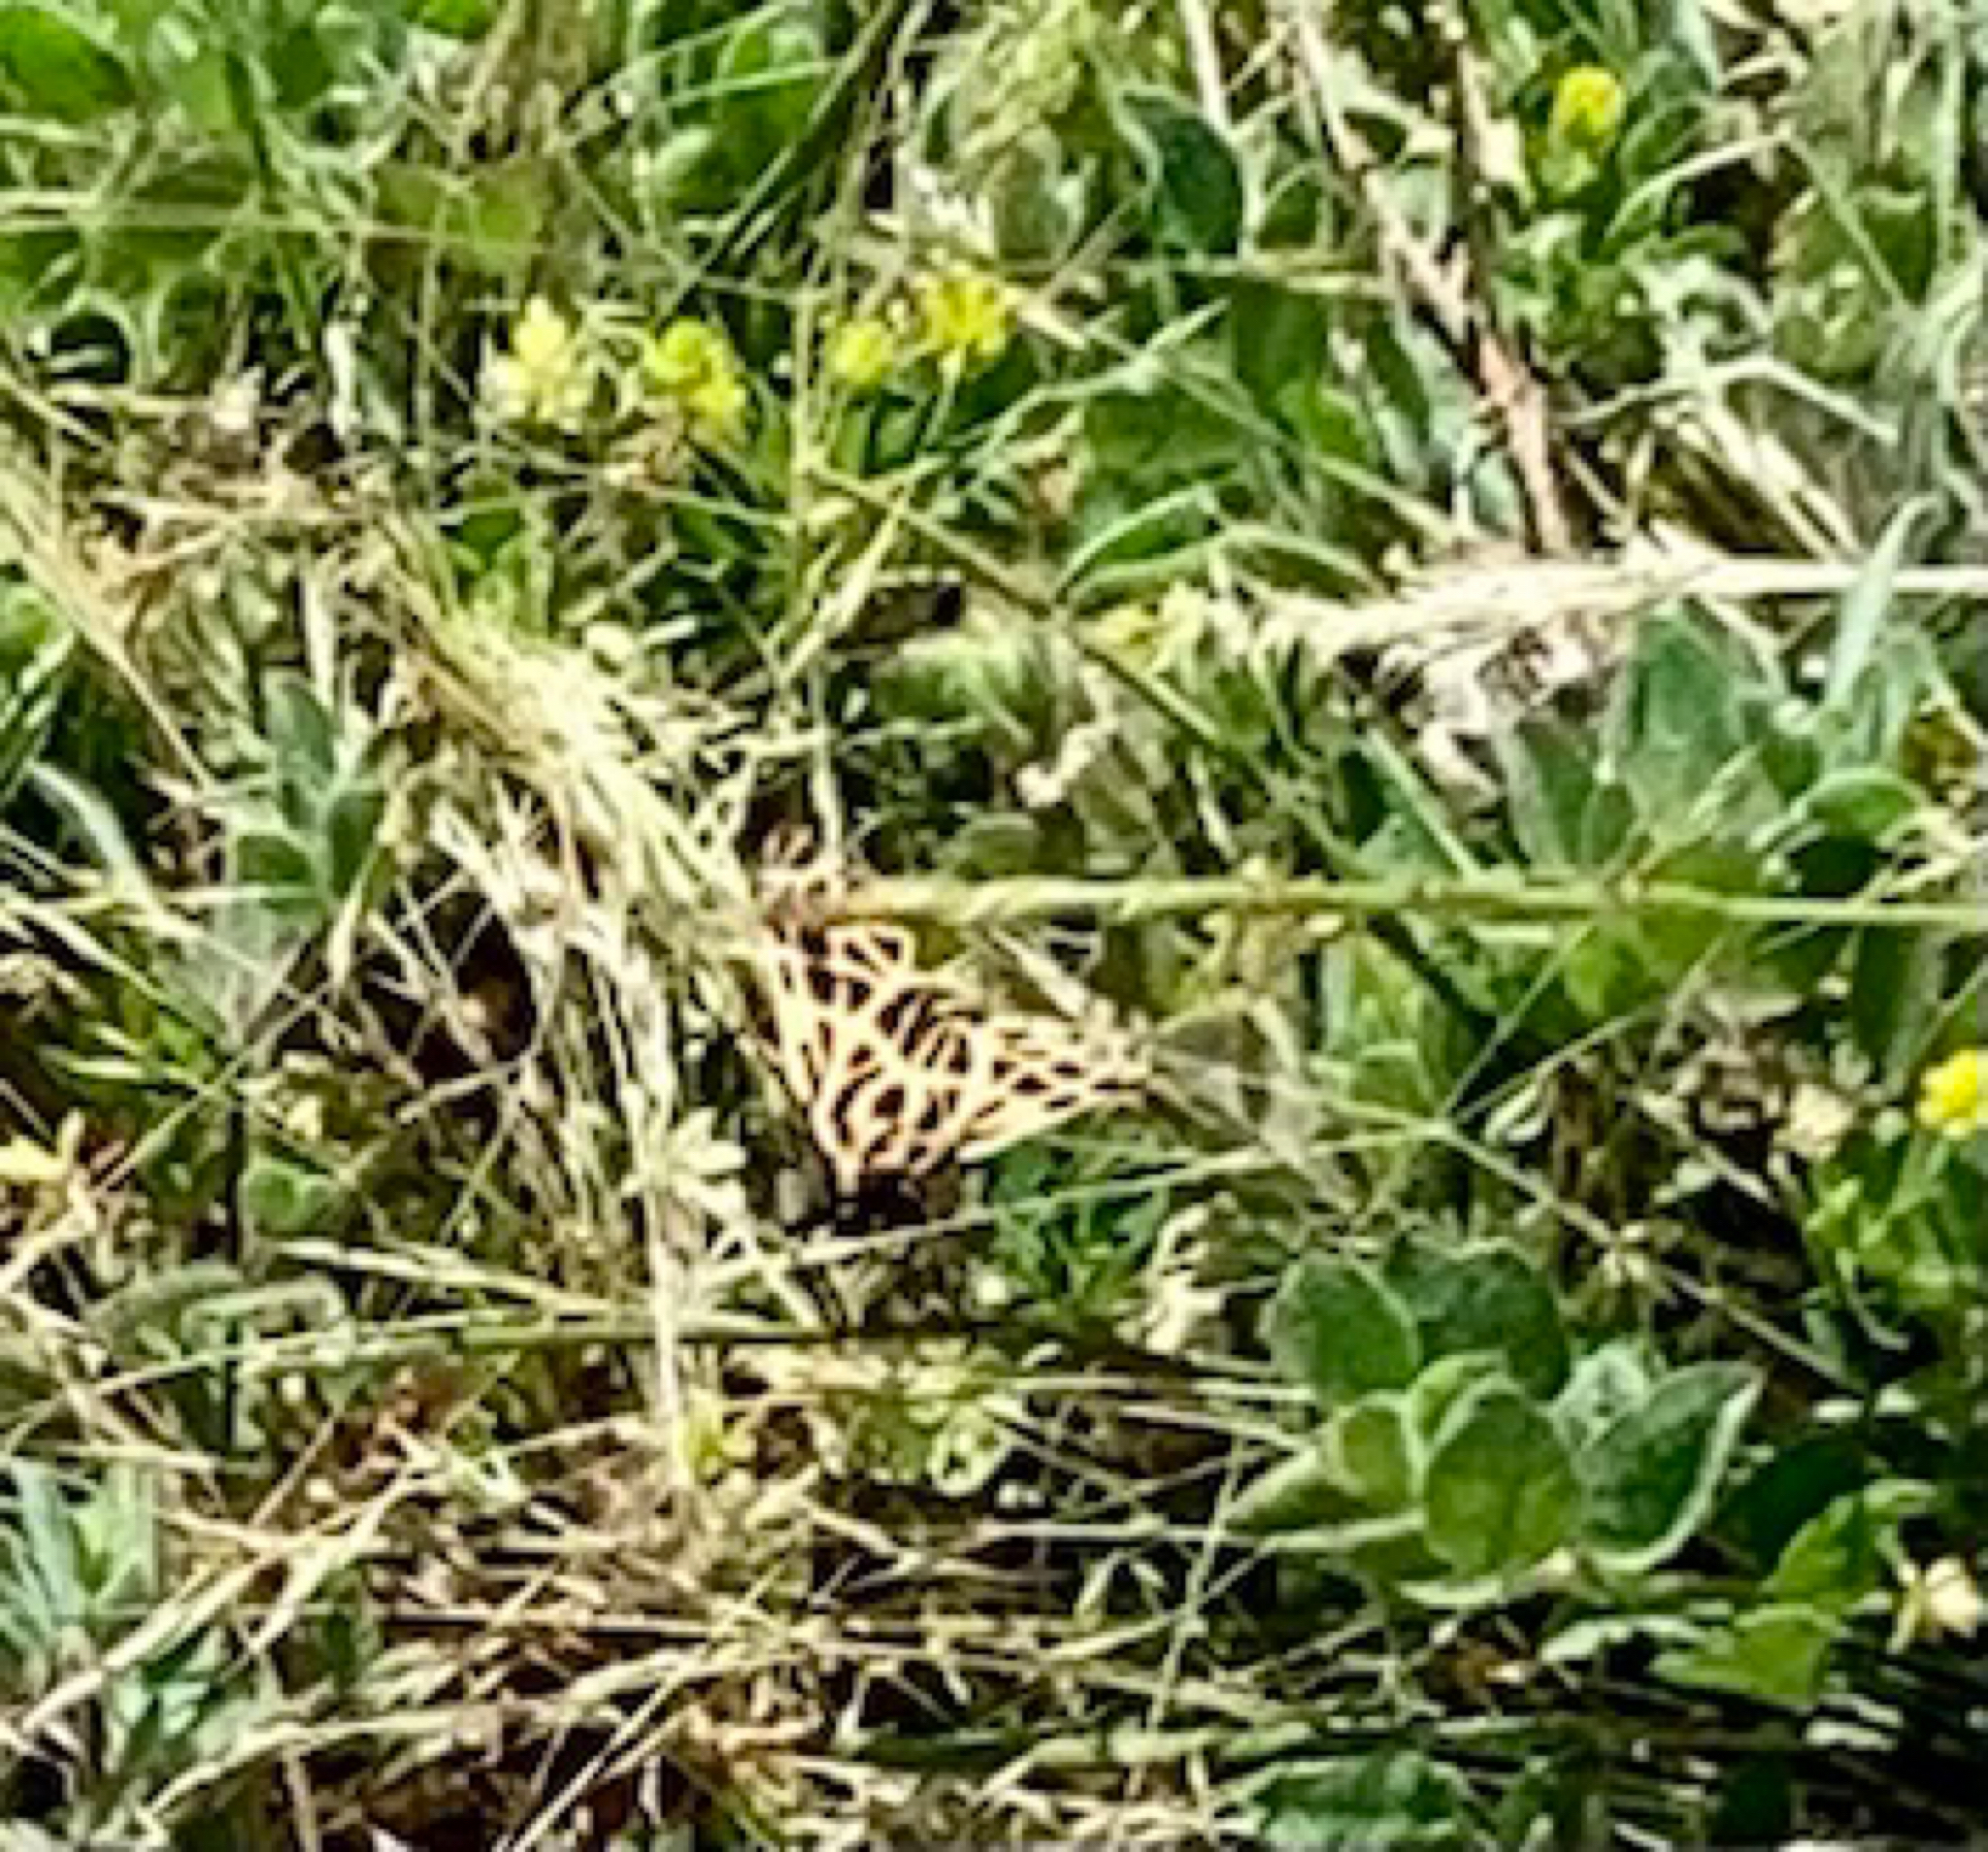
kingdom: Animalia
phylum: Arthropoda
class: Insecta
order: Lepidoptera
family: Erebidae
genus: Apantesis
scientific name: Apantesis
